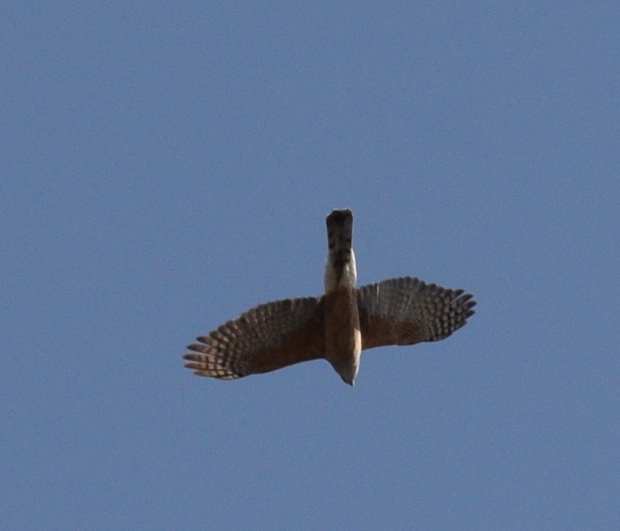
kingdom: Animalia
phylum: Chordata
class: Aves
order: Accipitriformes
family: Accipitridae
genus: Accipiter
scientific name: Accipiter cooperii
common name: Cooper's hawk
